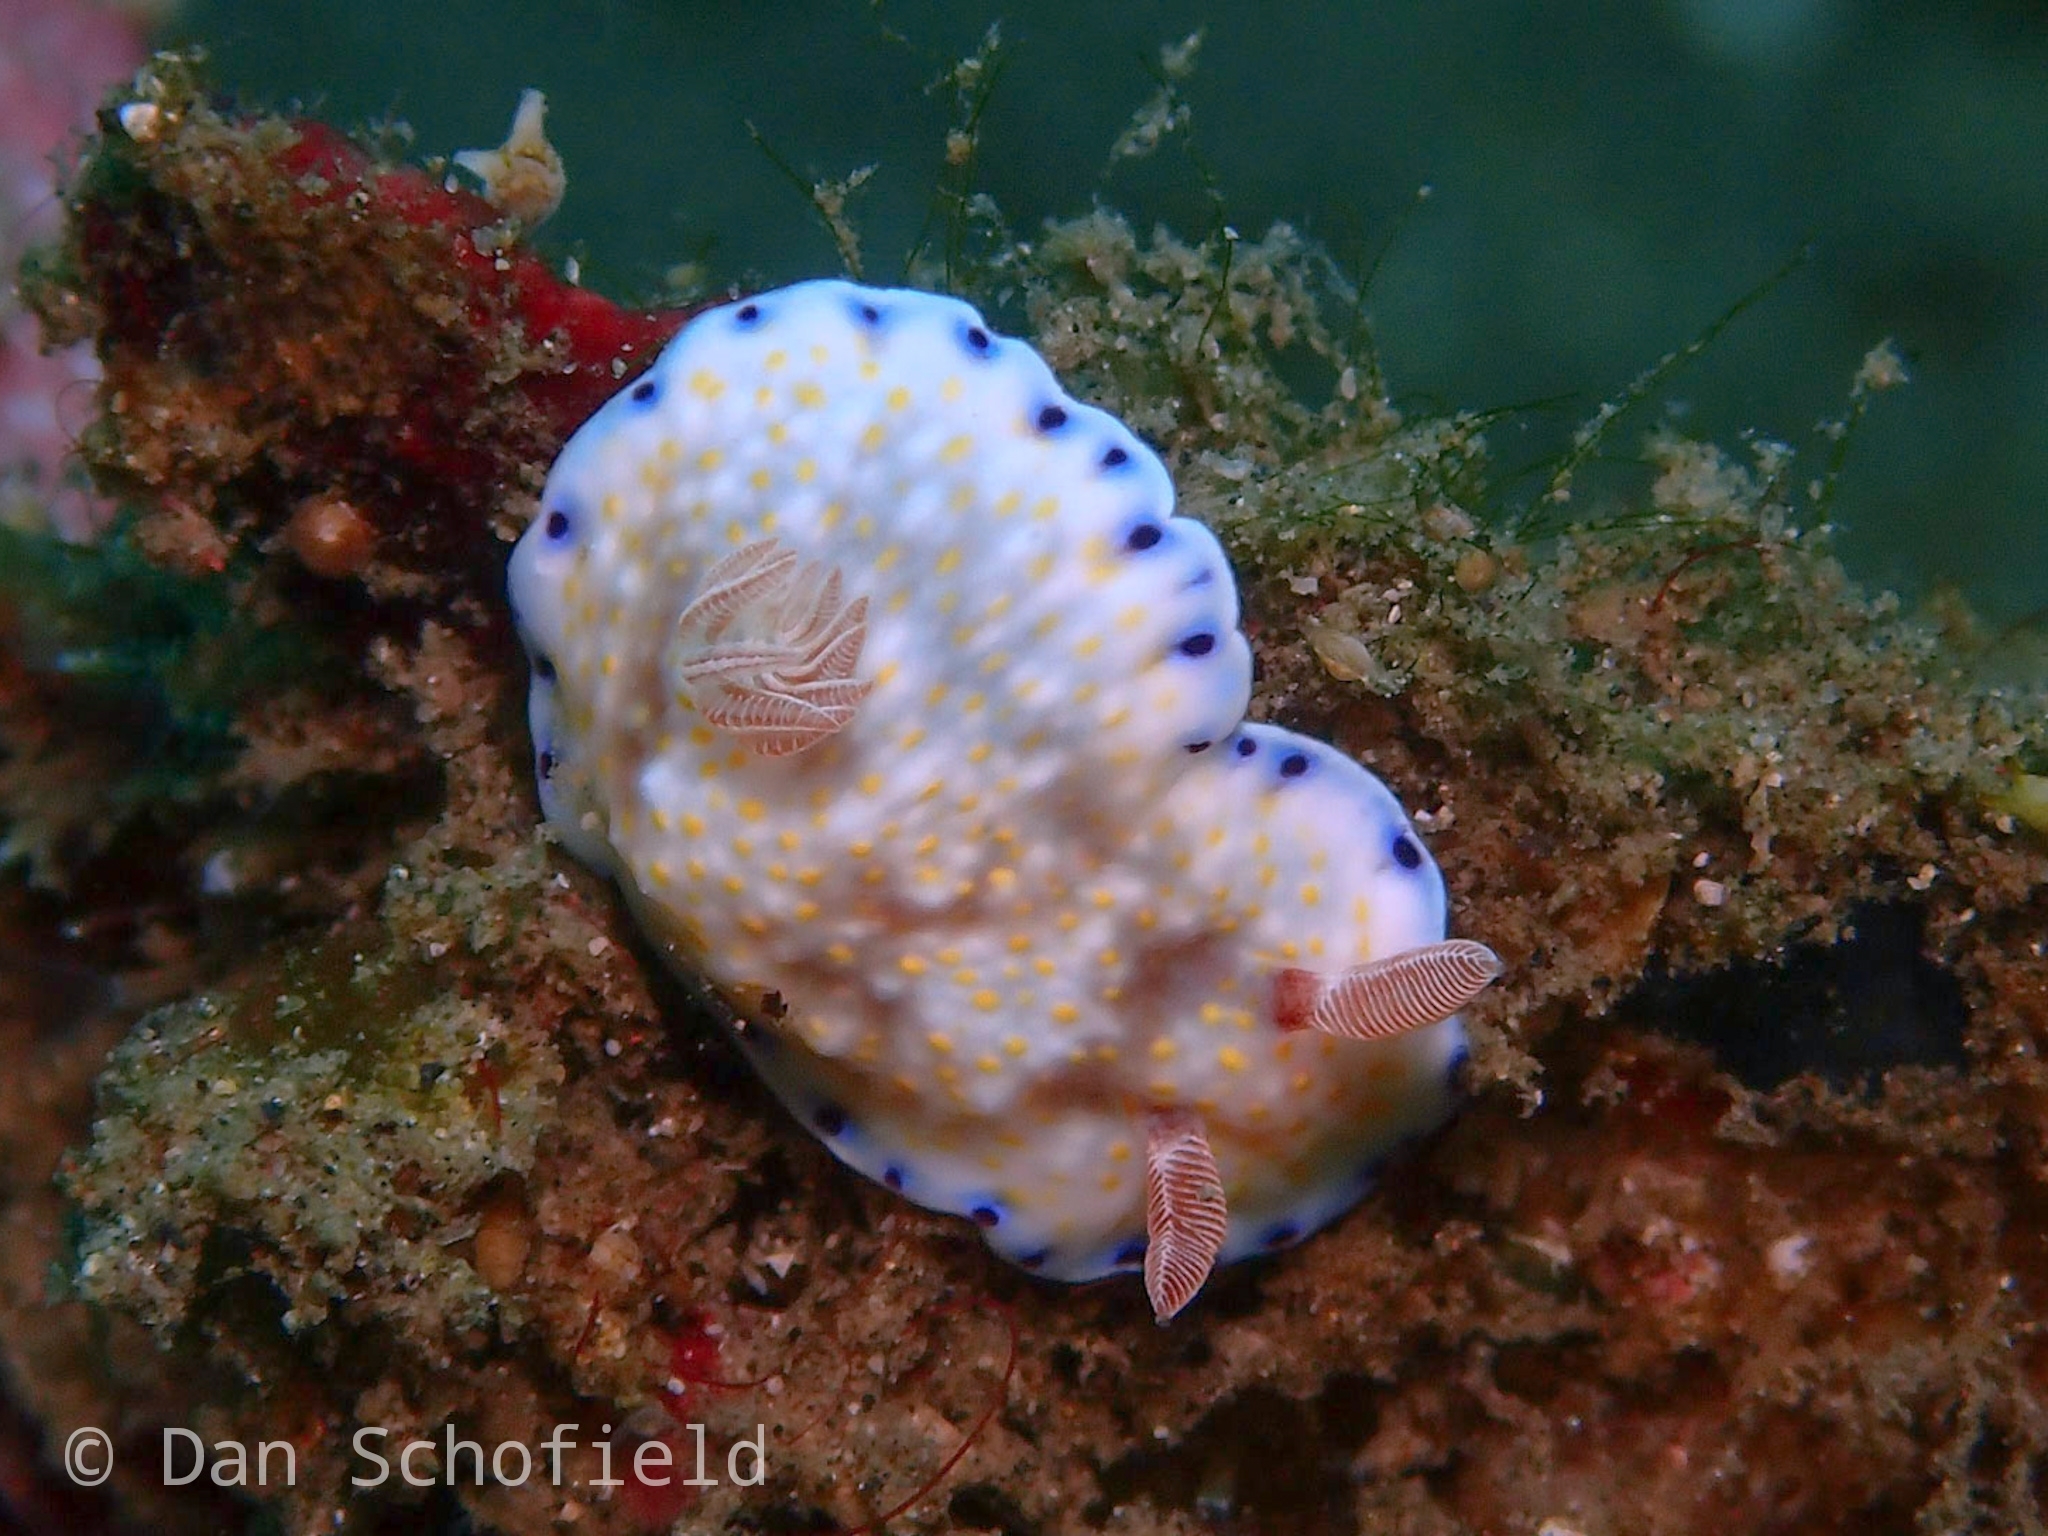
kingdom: Animalia
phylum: Mollusca
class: Gastropoda
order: Nudibranchia
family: Chromodorididae
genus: Goniobranchus
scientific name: Goniobranchus aureopurpureus
